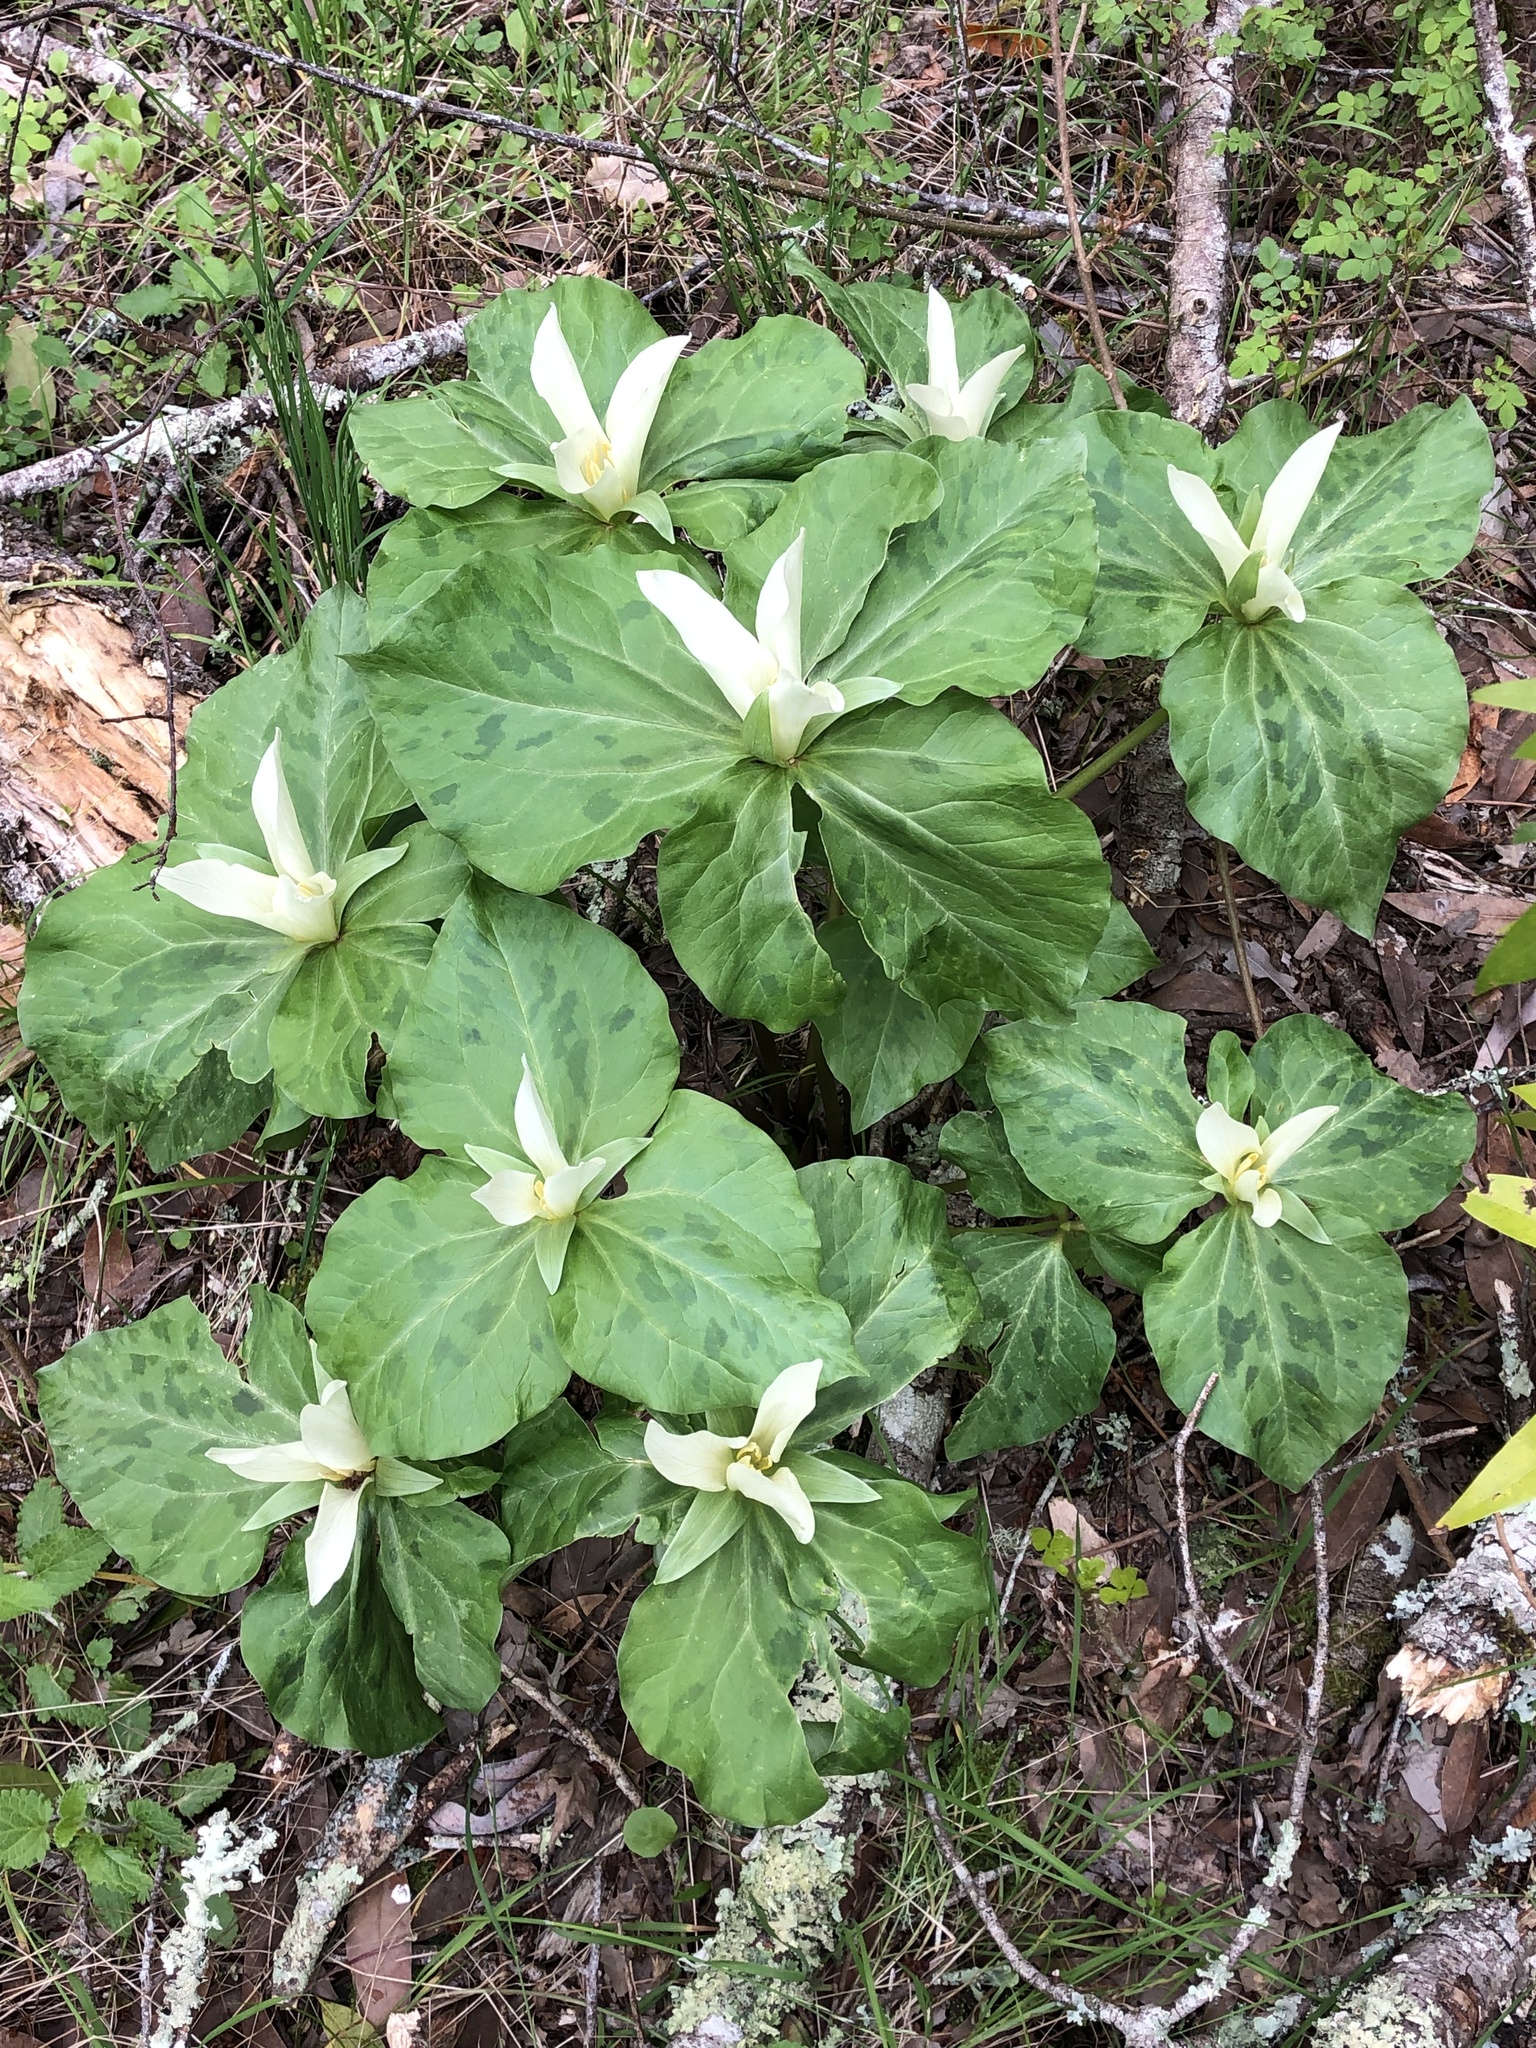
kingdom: Plantae
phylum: Tracheophyta
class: Liliopsida
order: Liliales
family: Melanthiaceae
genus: Trillium
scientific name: Trillium albidum
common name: Freeman's trillium
